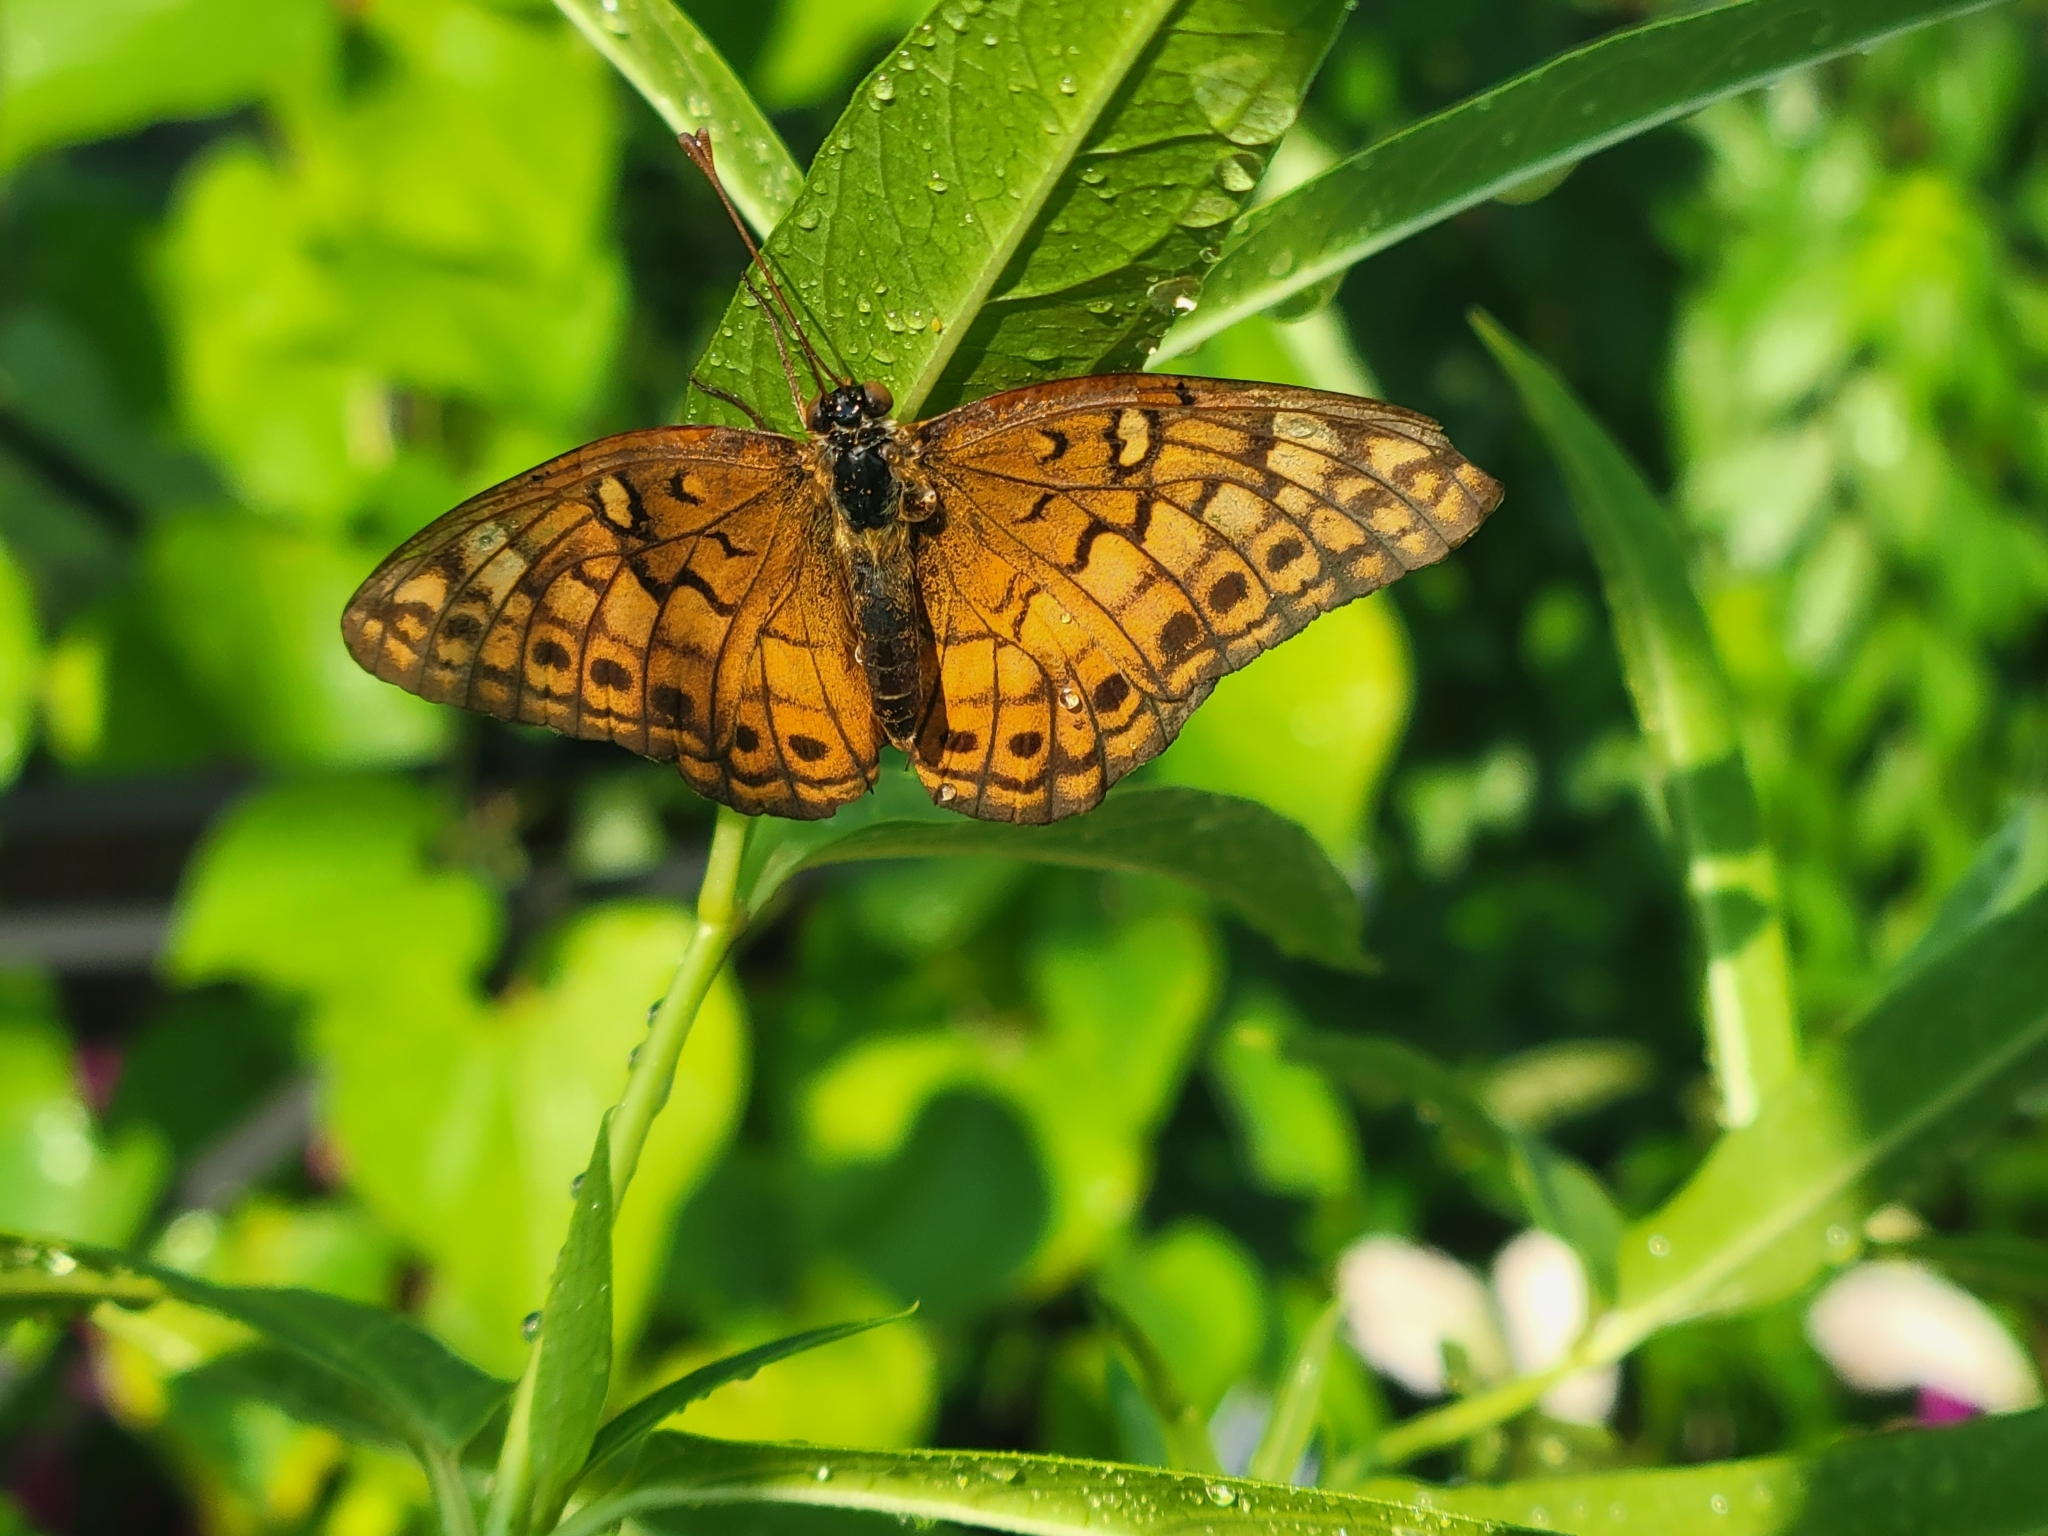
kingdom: Animalia
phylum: Arthropoda
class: Insecta
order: Lepidoptera
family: Nymphalidae
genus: Euptoieta
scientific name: Euptoieta claudia
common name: Variegated fritillary
